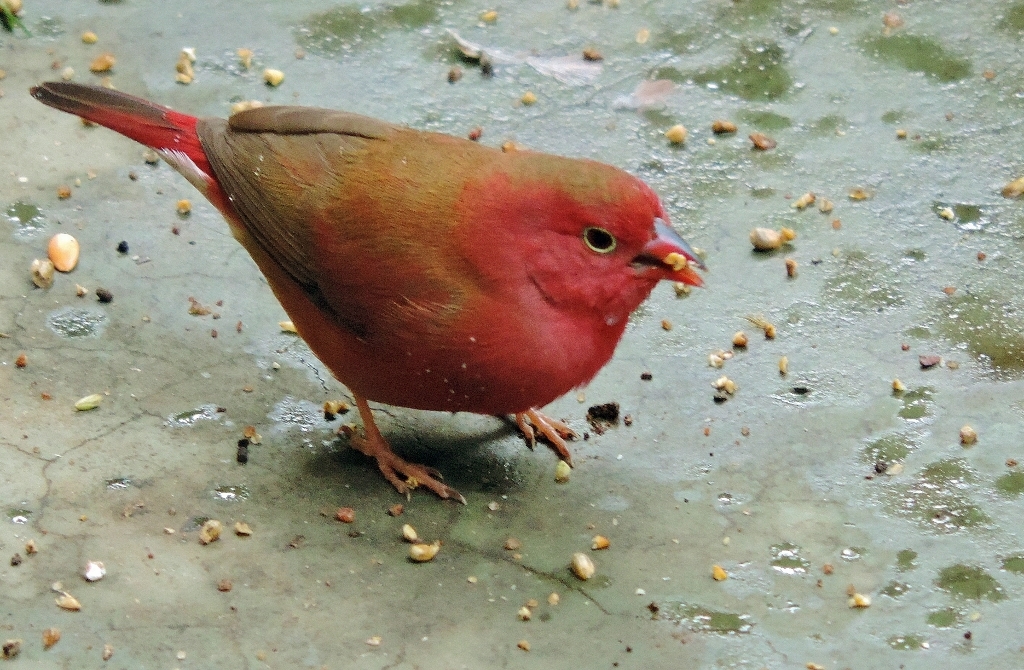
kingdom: Animalia
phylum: Chordata
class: Aves
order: Passeriformes
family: Estrildidae
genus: Lagonosticta
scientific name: Lagonosticta senegala
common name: Red-billed firefinch
